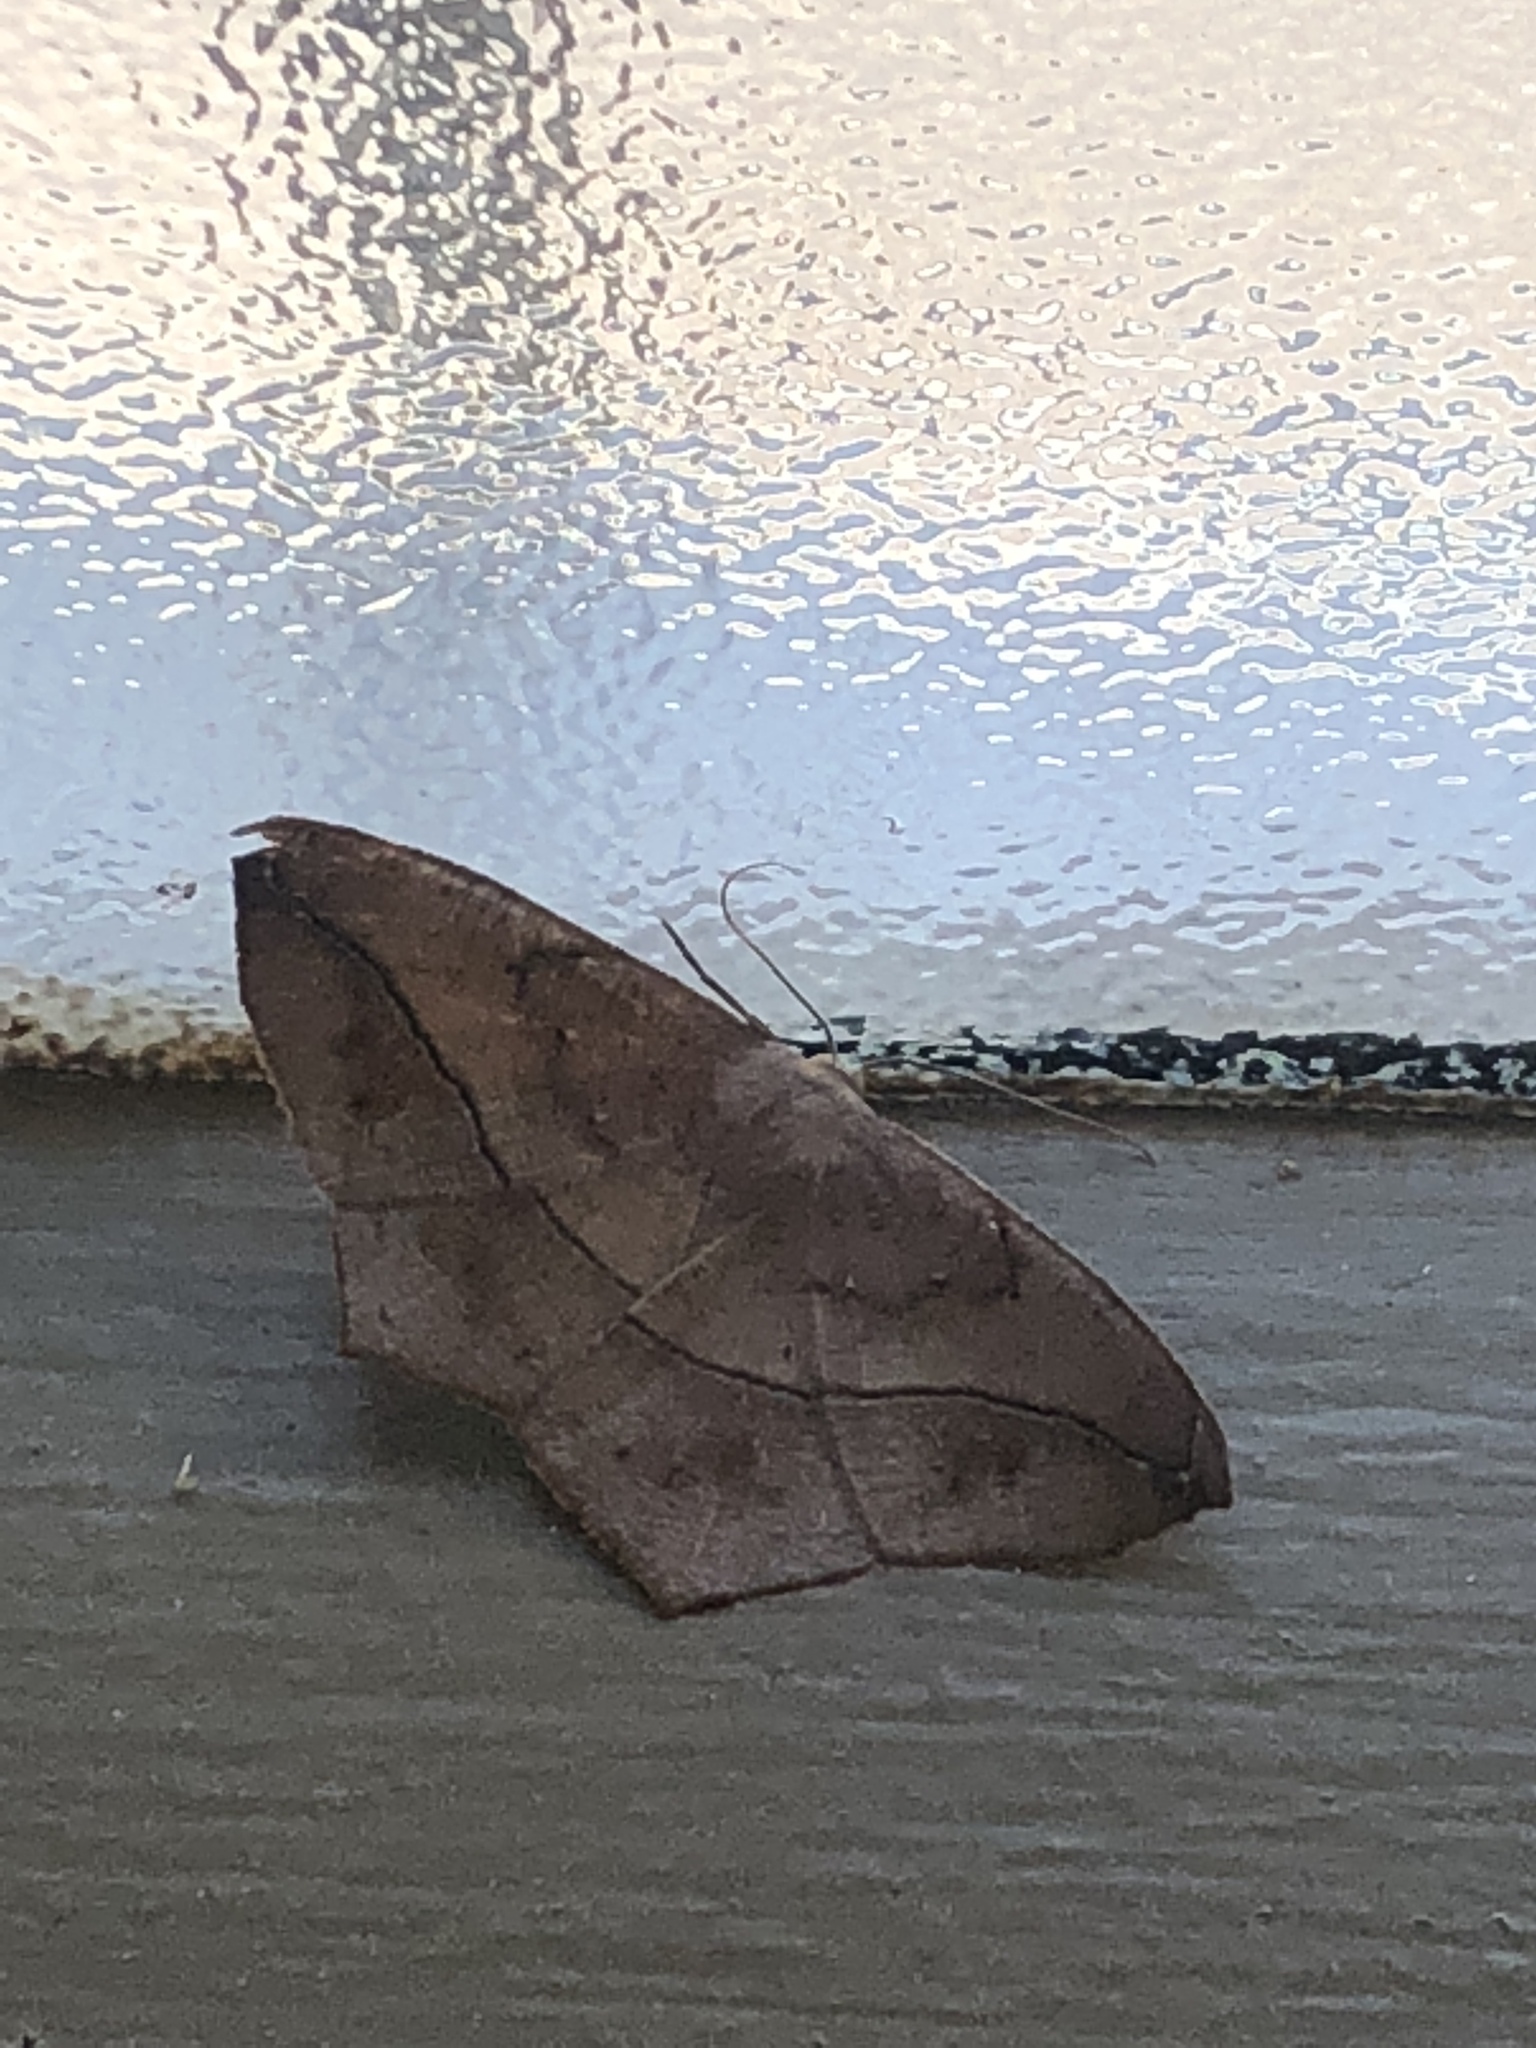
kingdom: Animalia
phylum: Arthropoda
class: Insecta
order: Lepidoptera
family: Geometridae
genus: Prochoerodes
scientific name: Prochoerodes lineola
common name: Large maple spanworm
